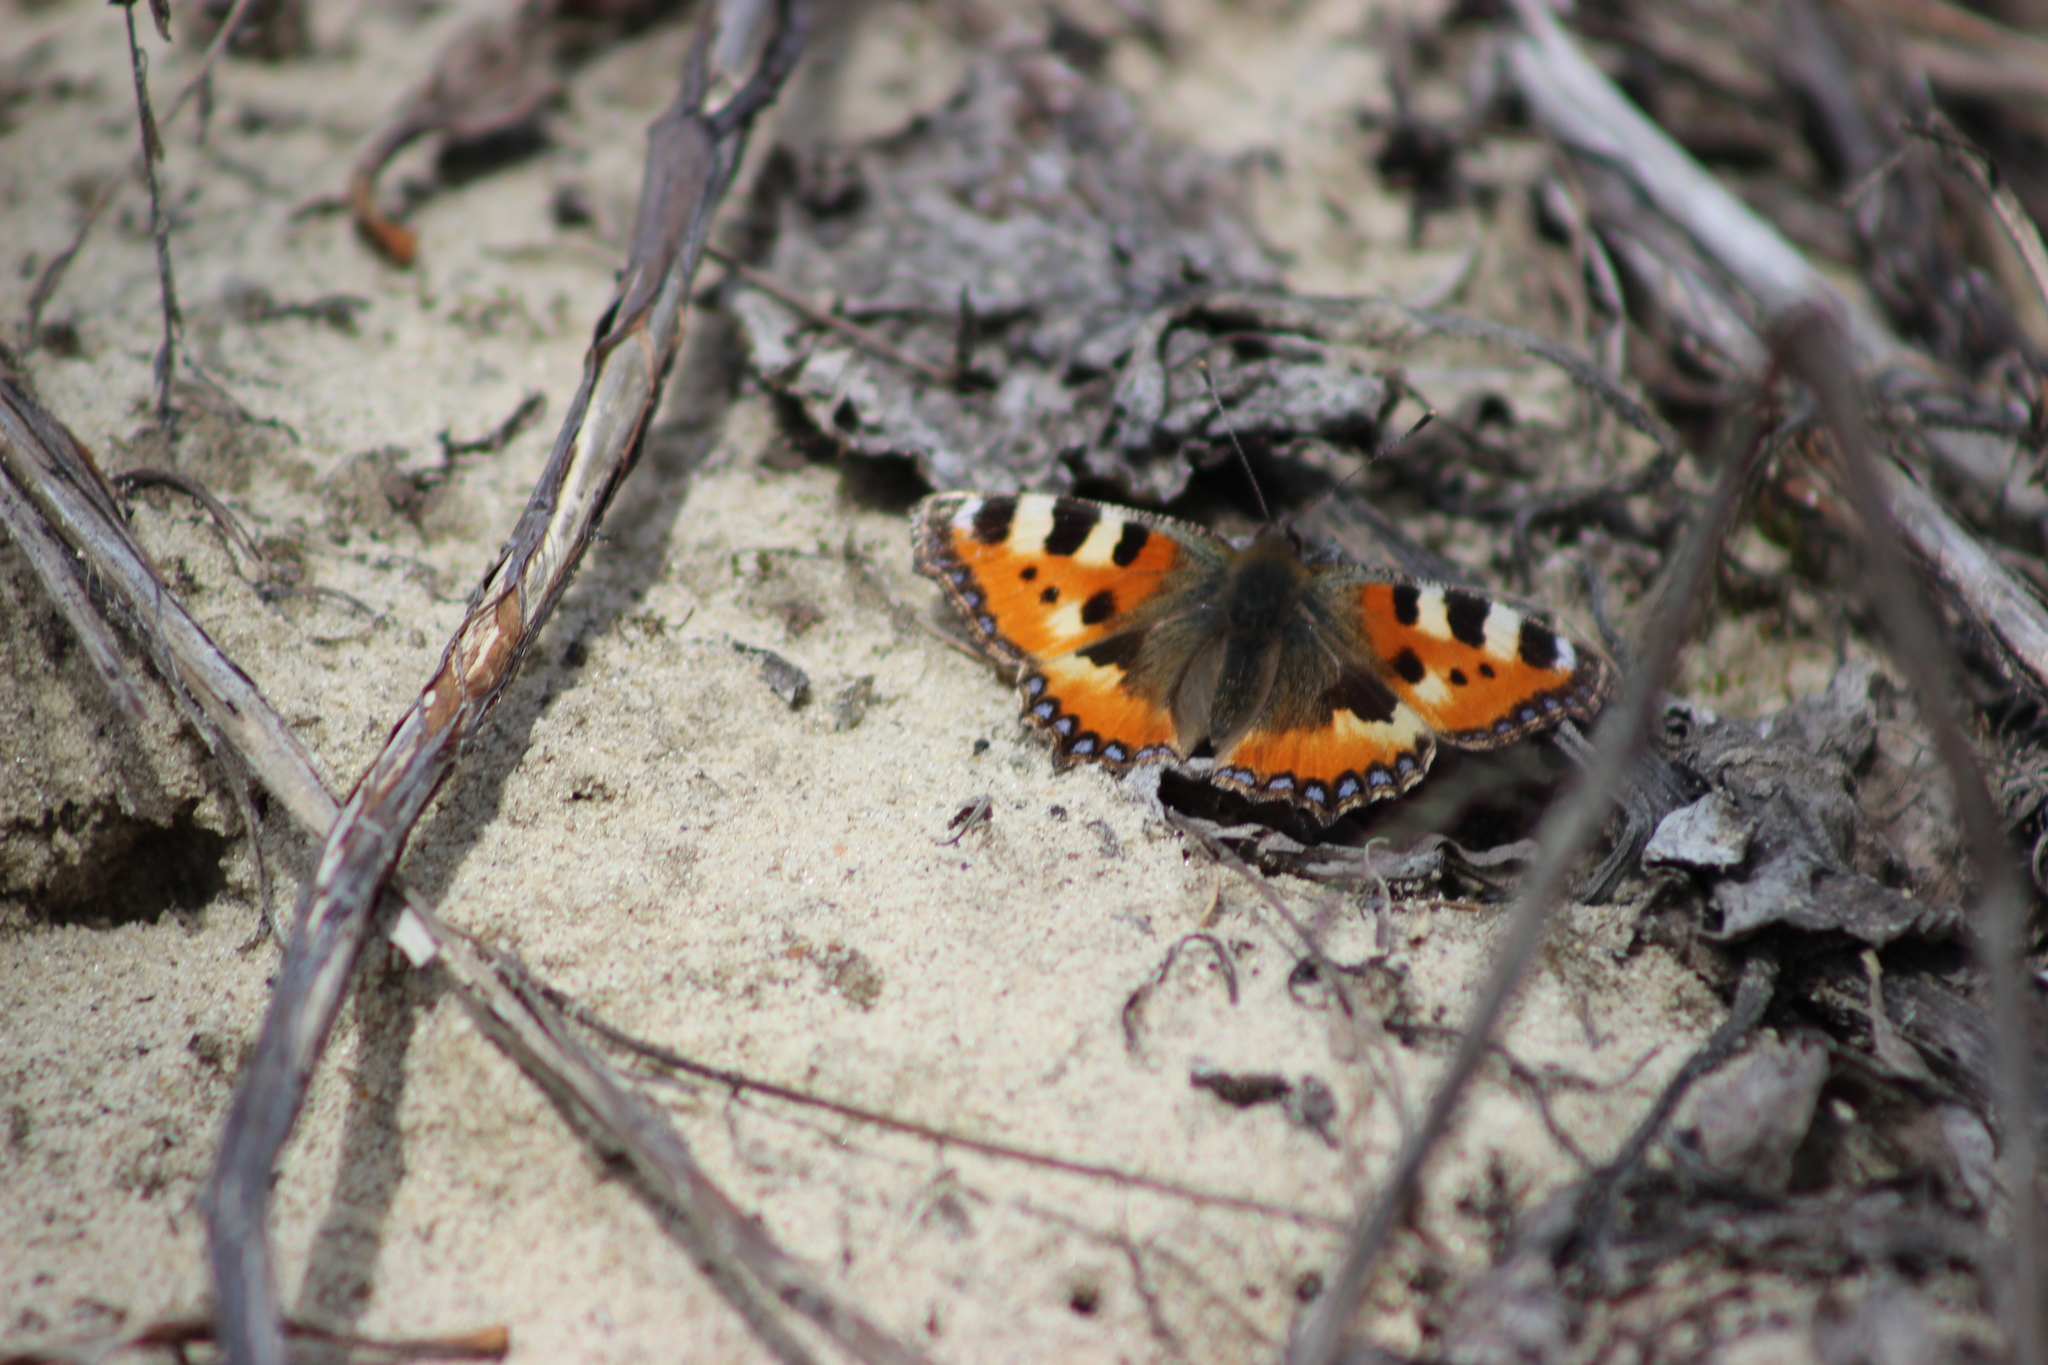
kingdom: Animalia
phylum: Arthropoda
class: Insecta
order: Lepidoptera
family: Nymphalidae
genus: Aglais
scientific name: Aglais urticae
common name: Small tortoiseshell
